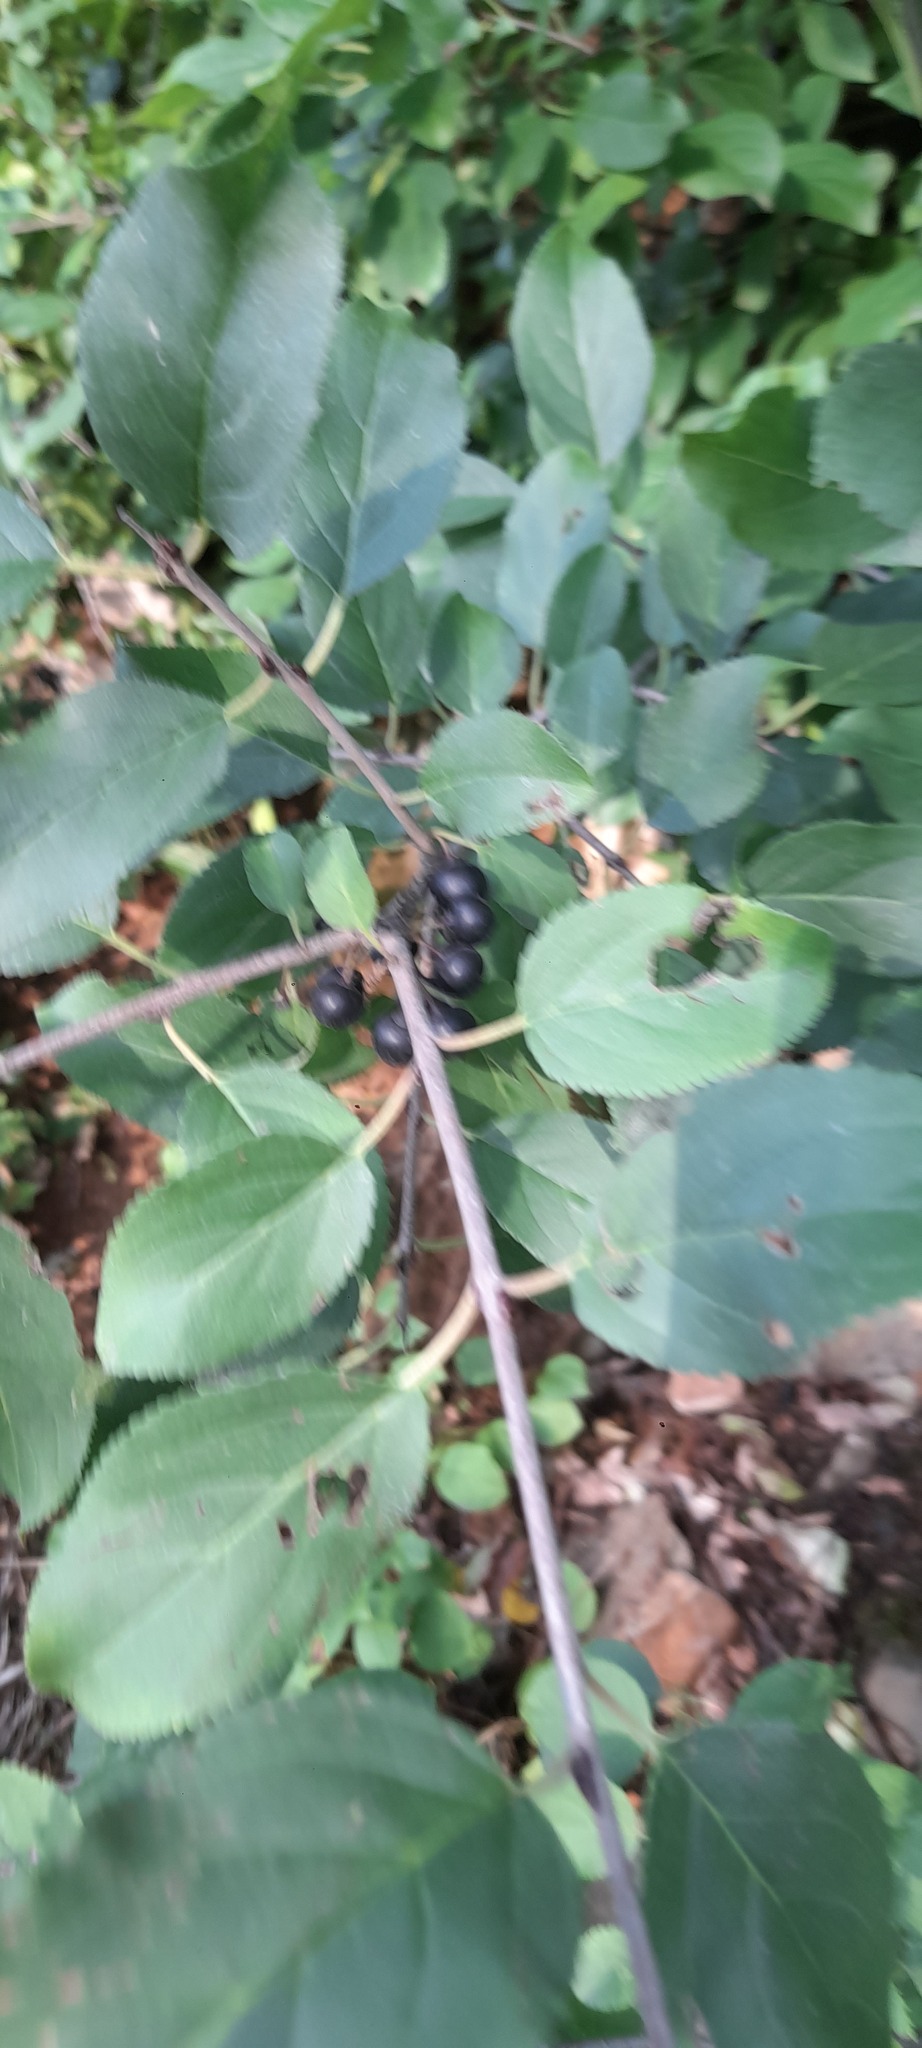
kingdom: Plantae
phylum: Tracheophyta
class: Magnoliopsida
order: Rosales
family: Rhamnaceae
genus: Rhamnus
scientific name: Rhamnus cathartica
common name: Common buckthorn
